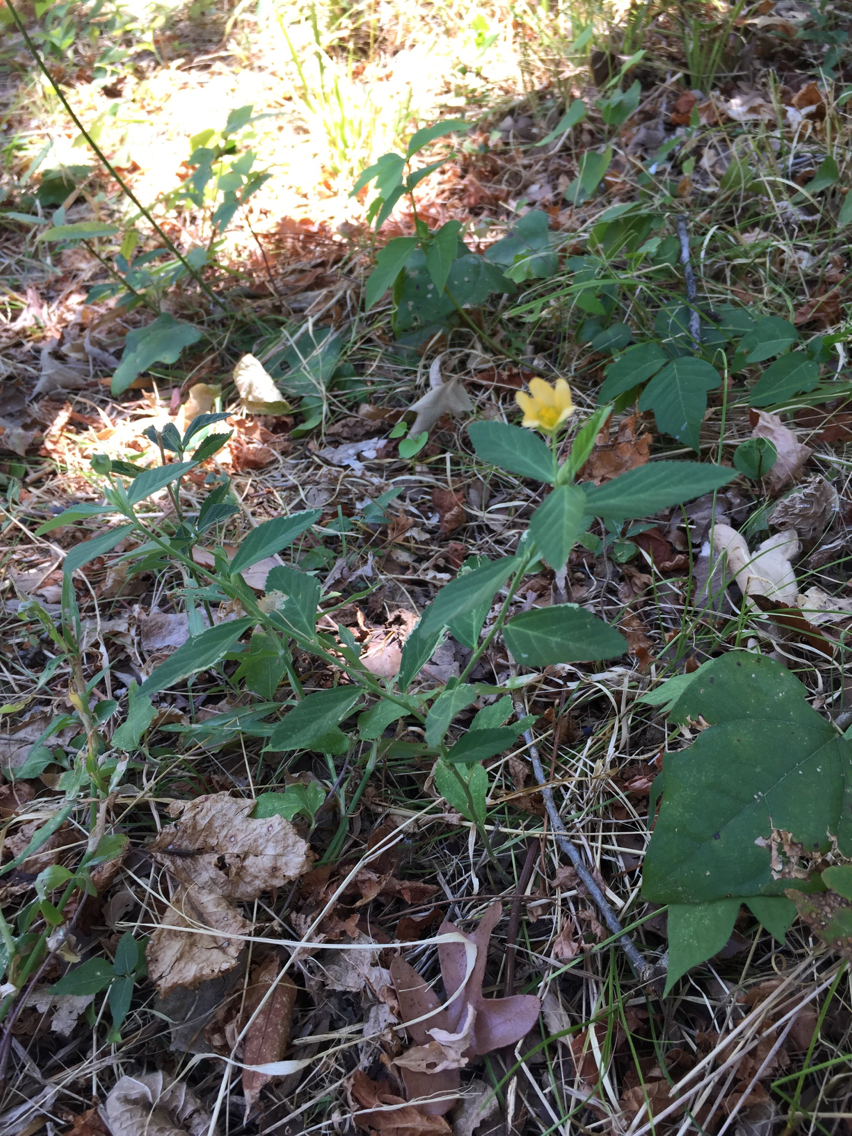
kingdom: Plantae
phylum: Tracheophyta
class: Magnoliopsida
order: Malvales
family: Malvaceae
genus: Sida
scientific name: Sida rhombifolia
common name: Queensland-hemp
